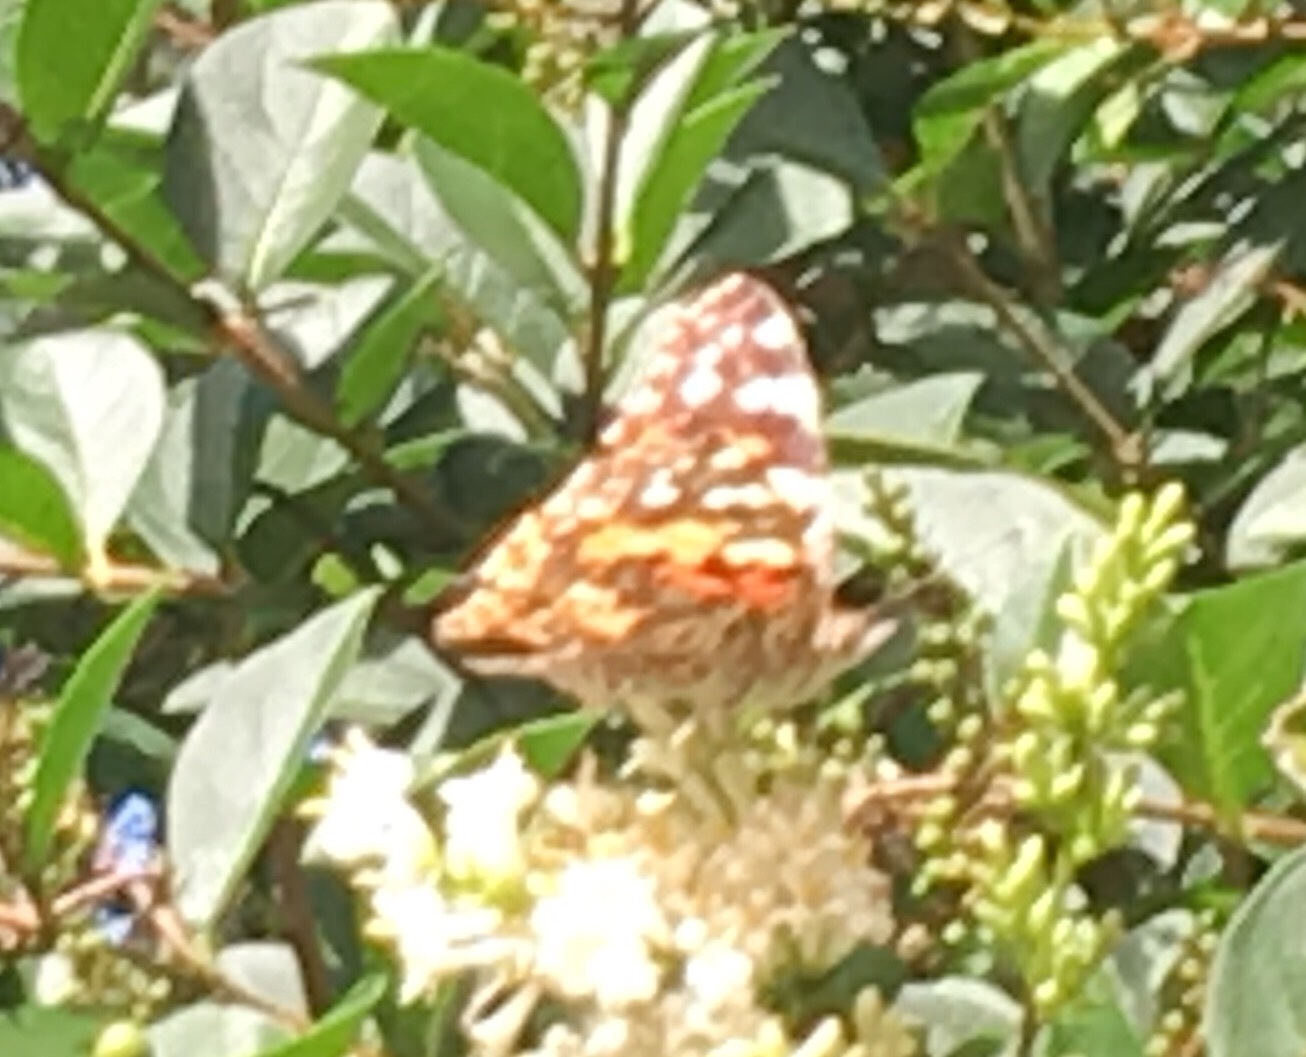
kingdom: Animalia
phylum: Arthropoda
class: Insecta
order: Lepidoptera
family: Nymphalidae
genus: Vanessa
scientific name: Vanessa cardui
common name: Painted lady
